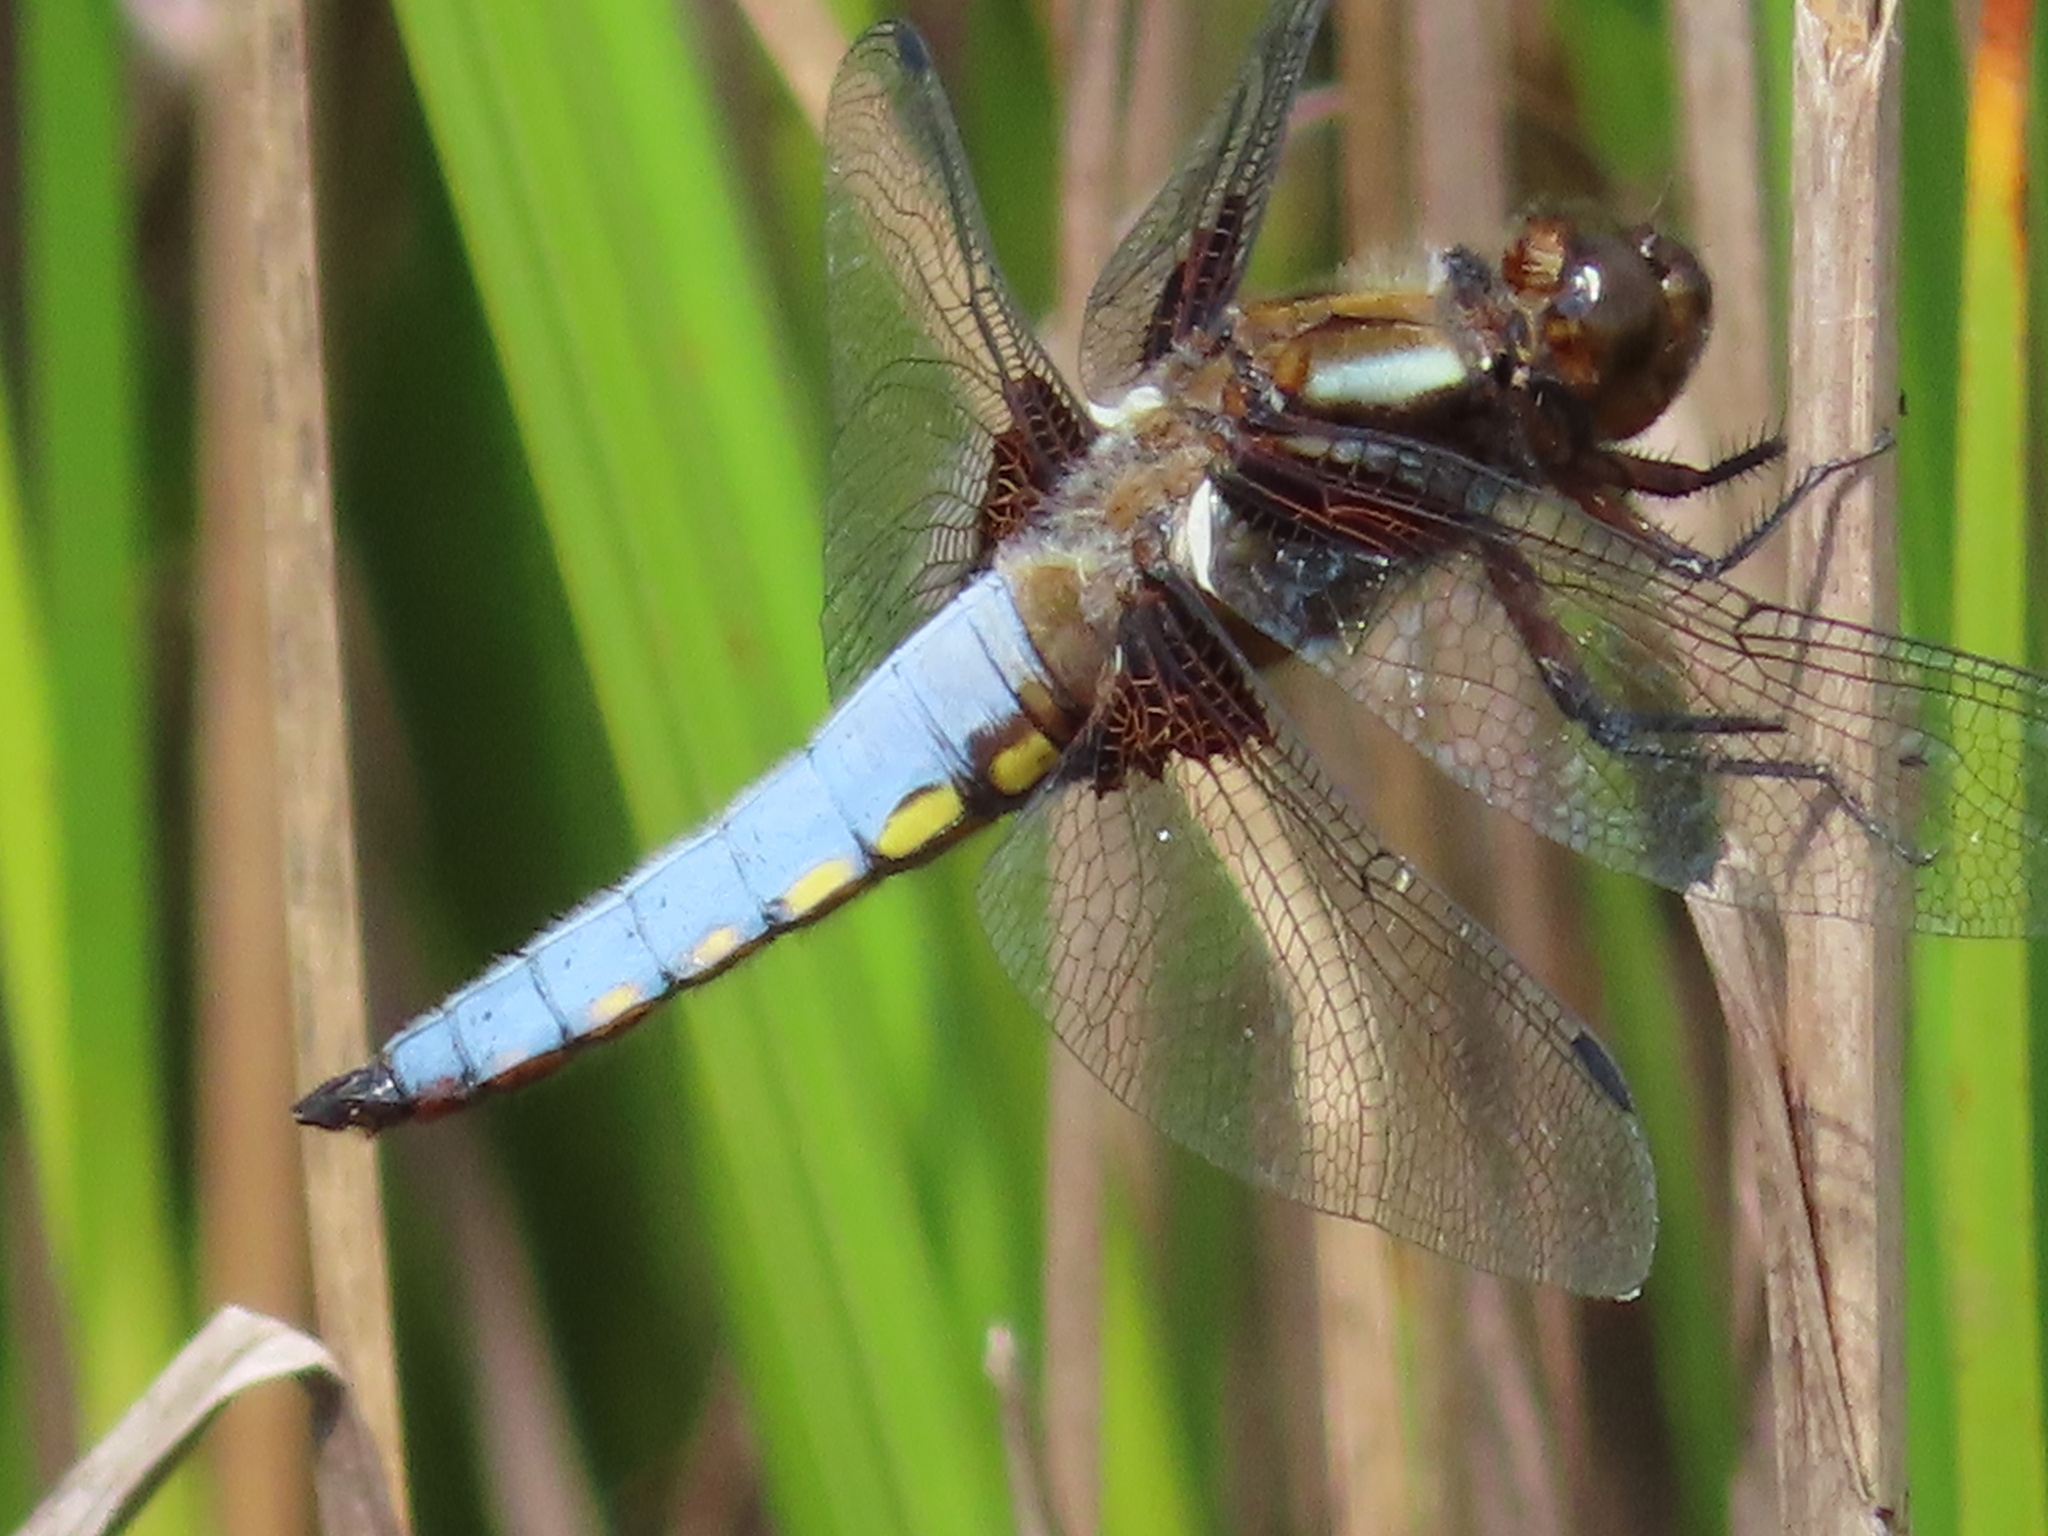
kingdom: Animalia
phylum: Arthropoda
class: Insecta
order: Odonata
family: Libellulidae
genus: Libellula
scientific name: Libellula depressa
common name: Broad-bodied chaser
